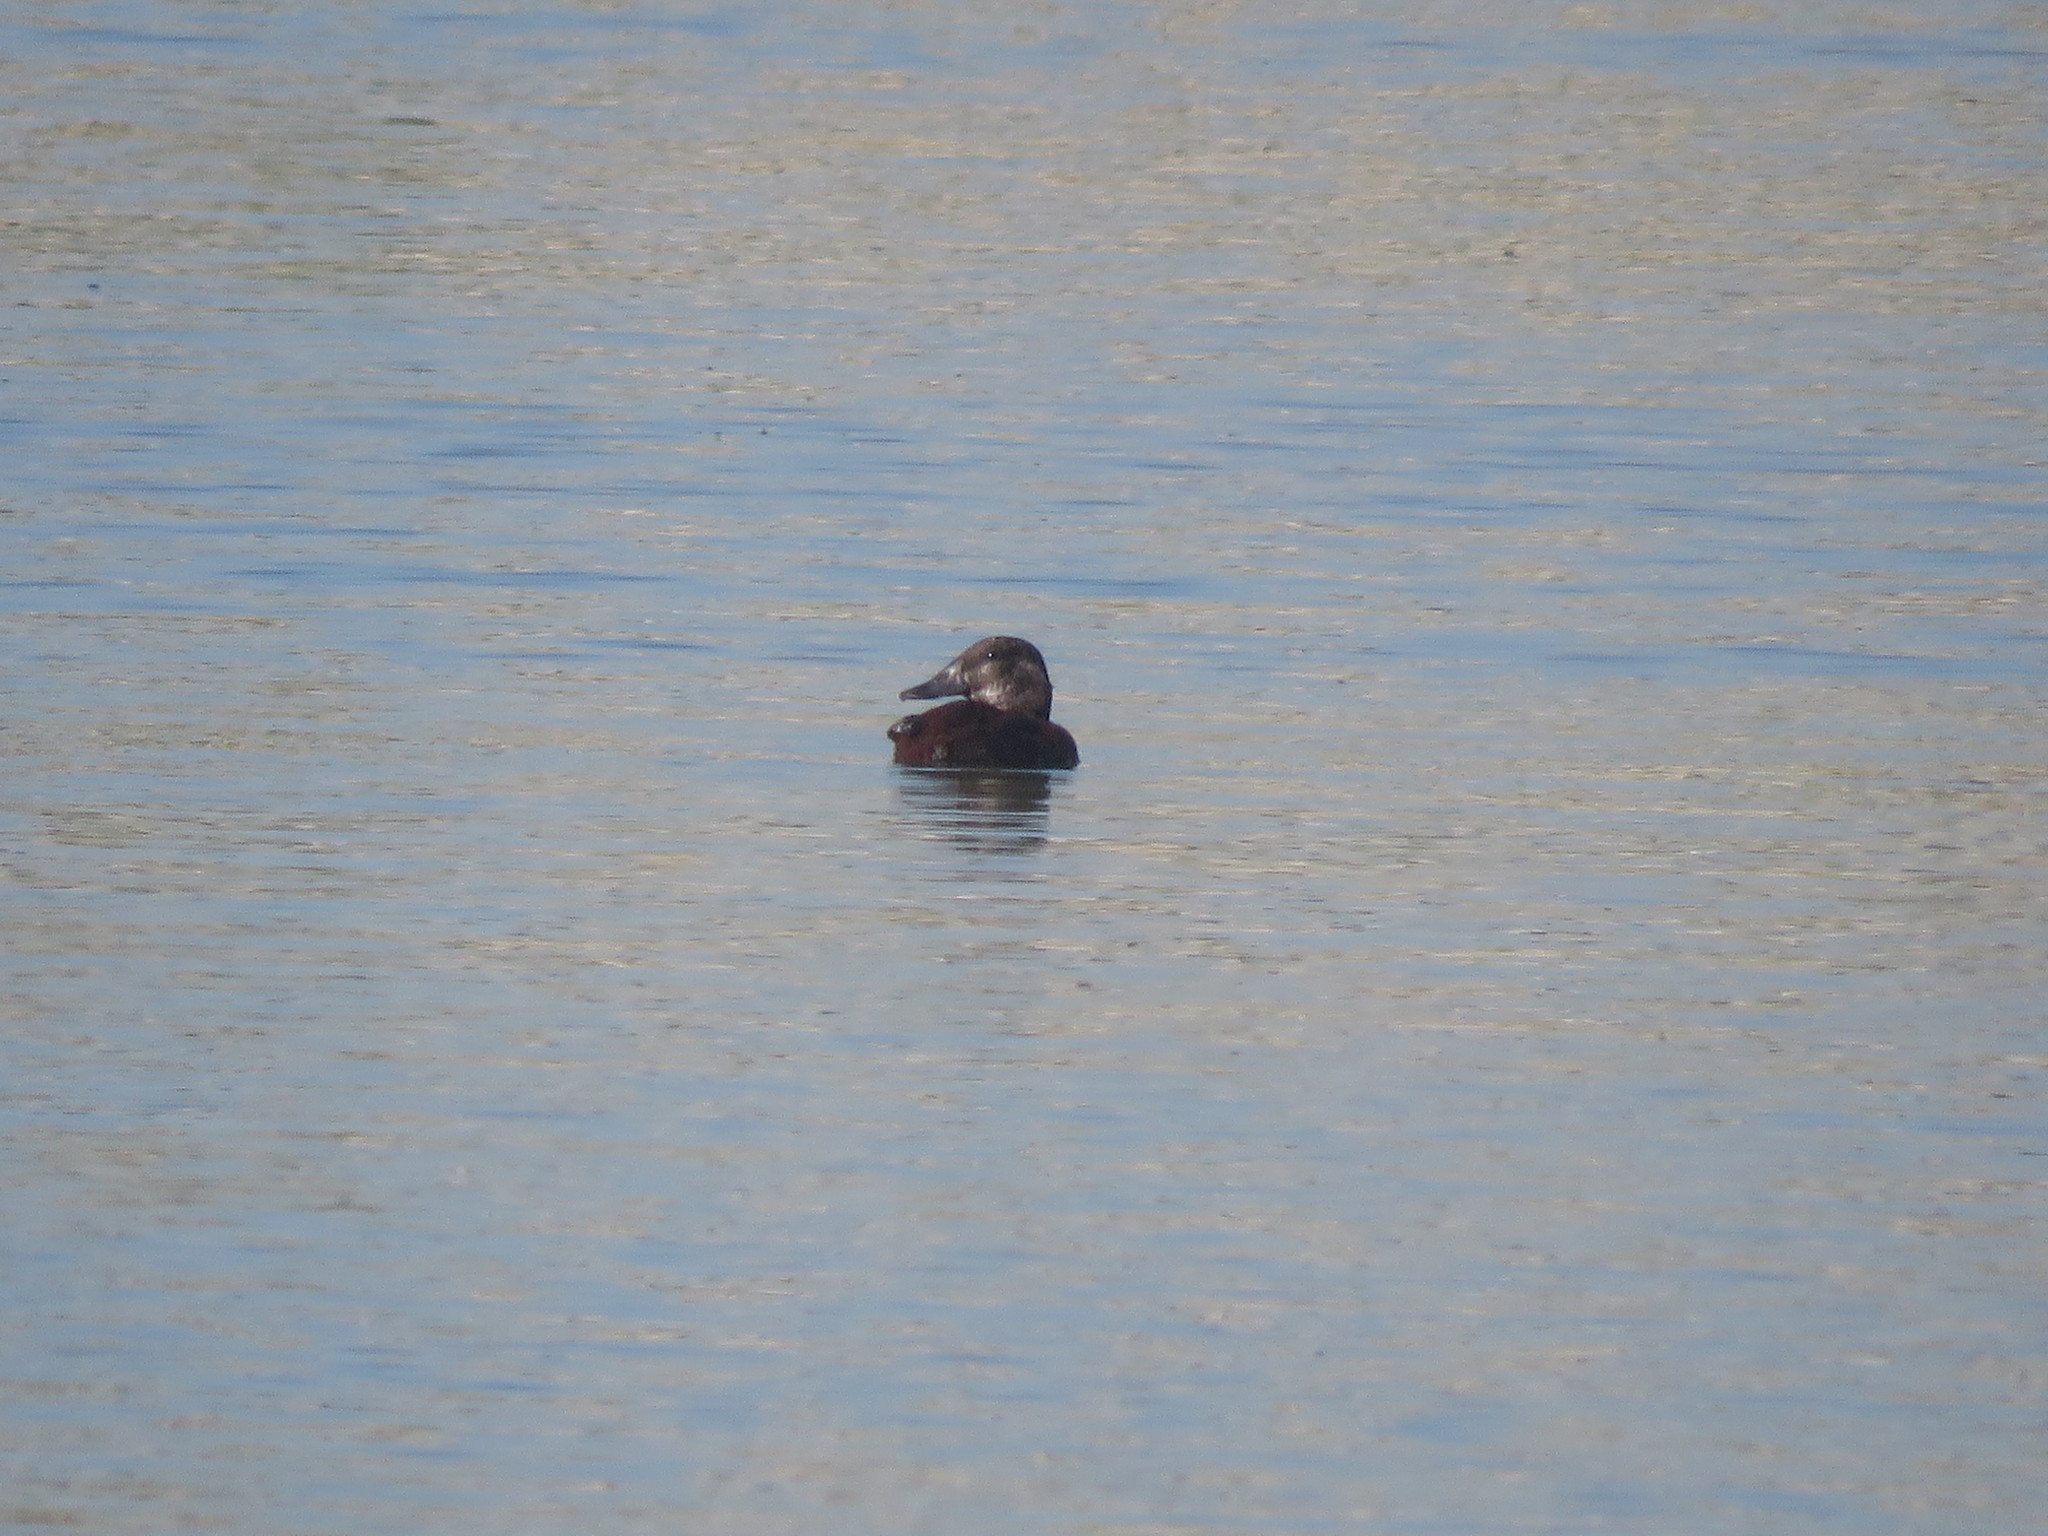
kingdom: Animalia
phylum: Chordata
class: Aves
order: Anseriformes
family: Anatidae
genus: Oxyura
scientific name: Oxyura vittata
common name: Lake duck
